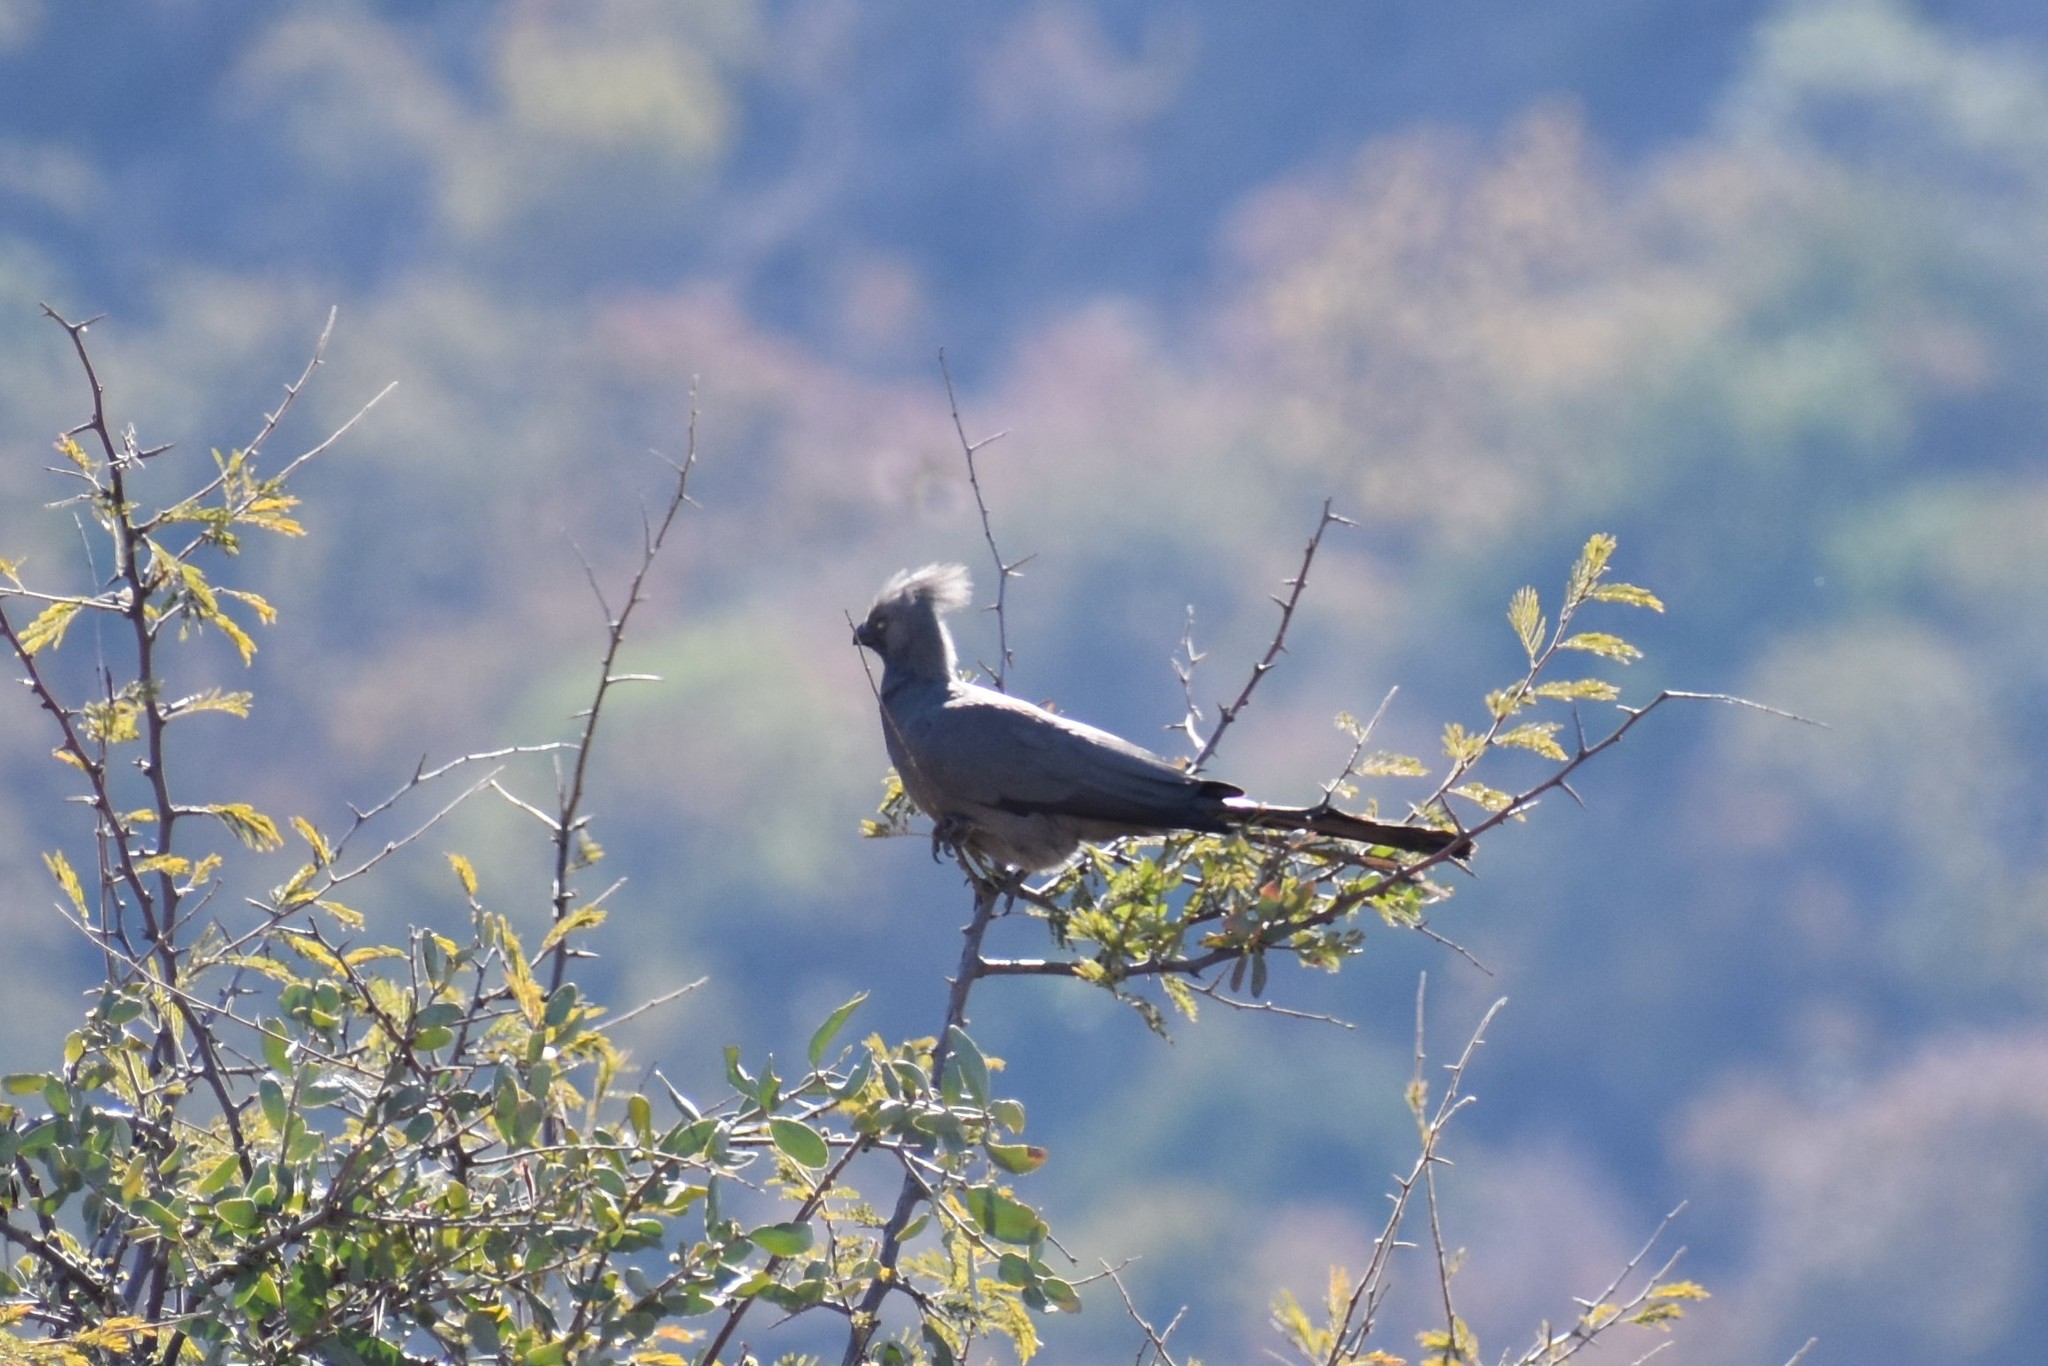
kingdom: Animalia
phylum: Chordata
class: Aves
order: Musophagiformes
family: Musophagidae
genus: Corythaixoides
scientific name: Corythaixoides concolor
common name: Grey go-away-bird
